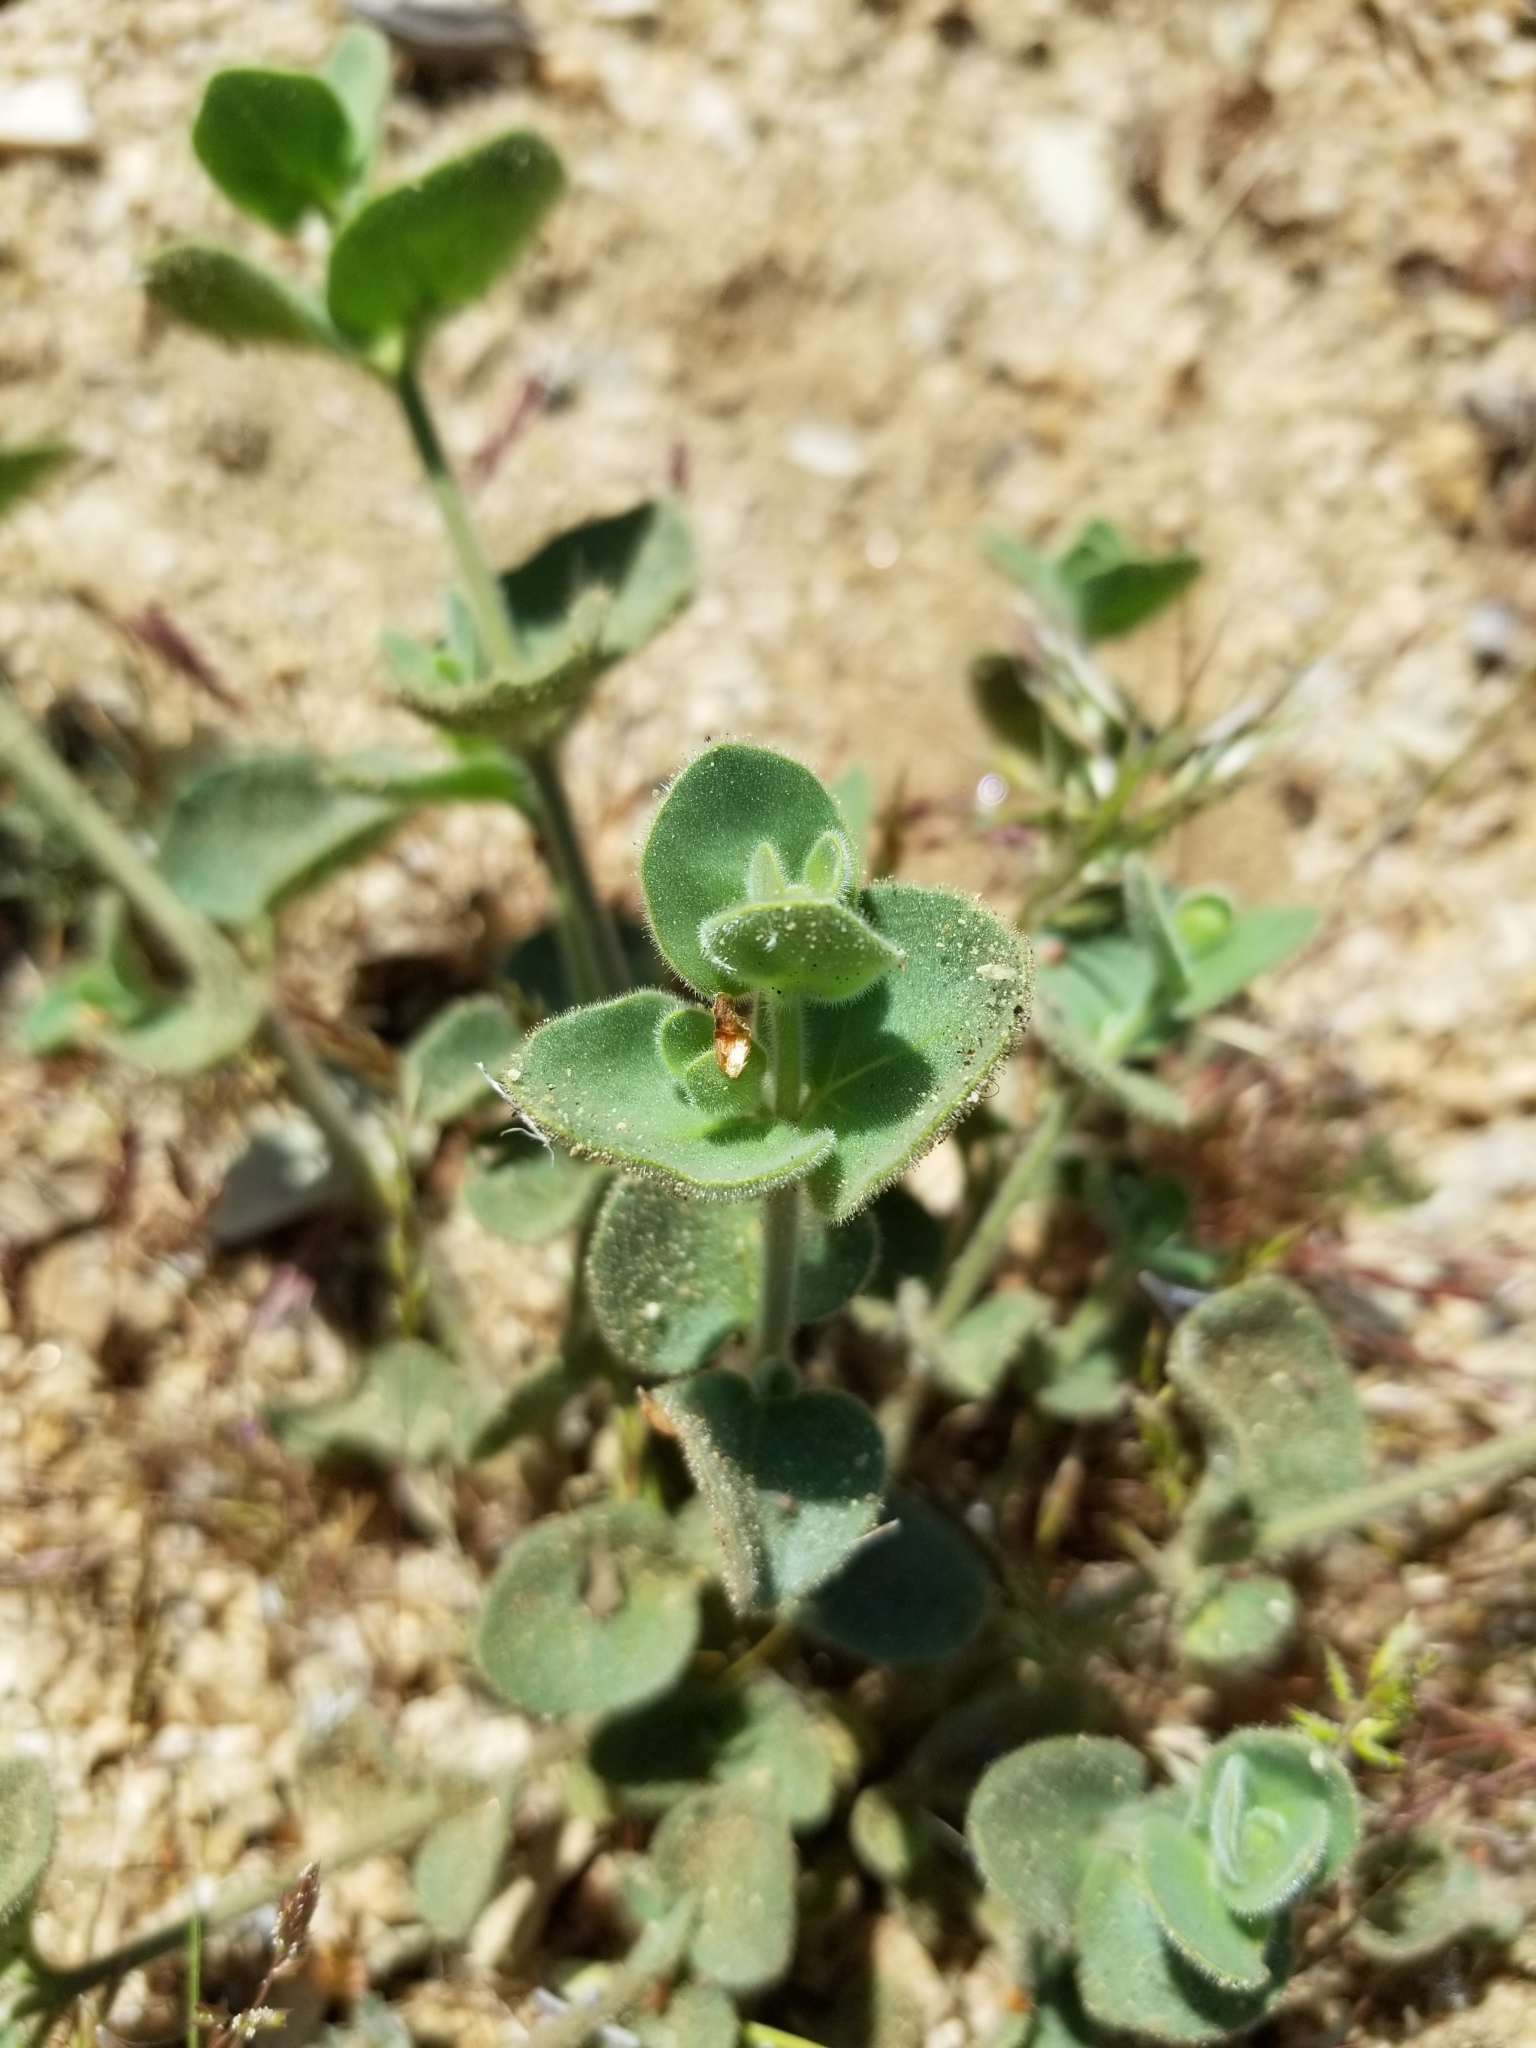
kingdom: Plantae
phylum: Tracheophyta
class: Magnoliopsida
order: Caryophyllales
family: Nyctaginaceae
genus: Mirabilis
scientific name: Mirabilis laevis
